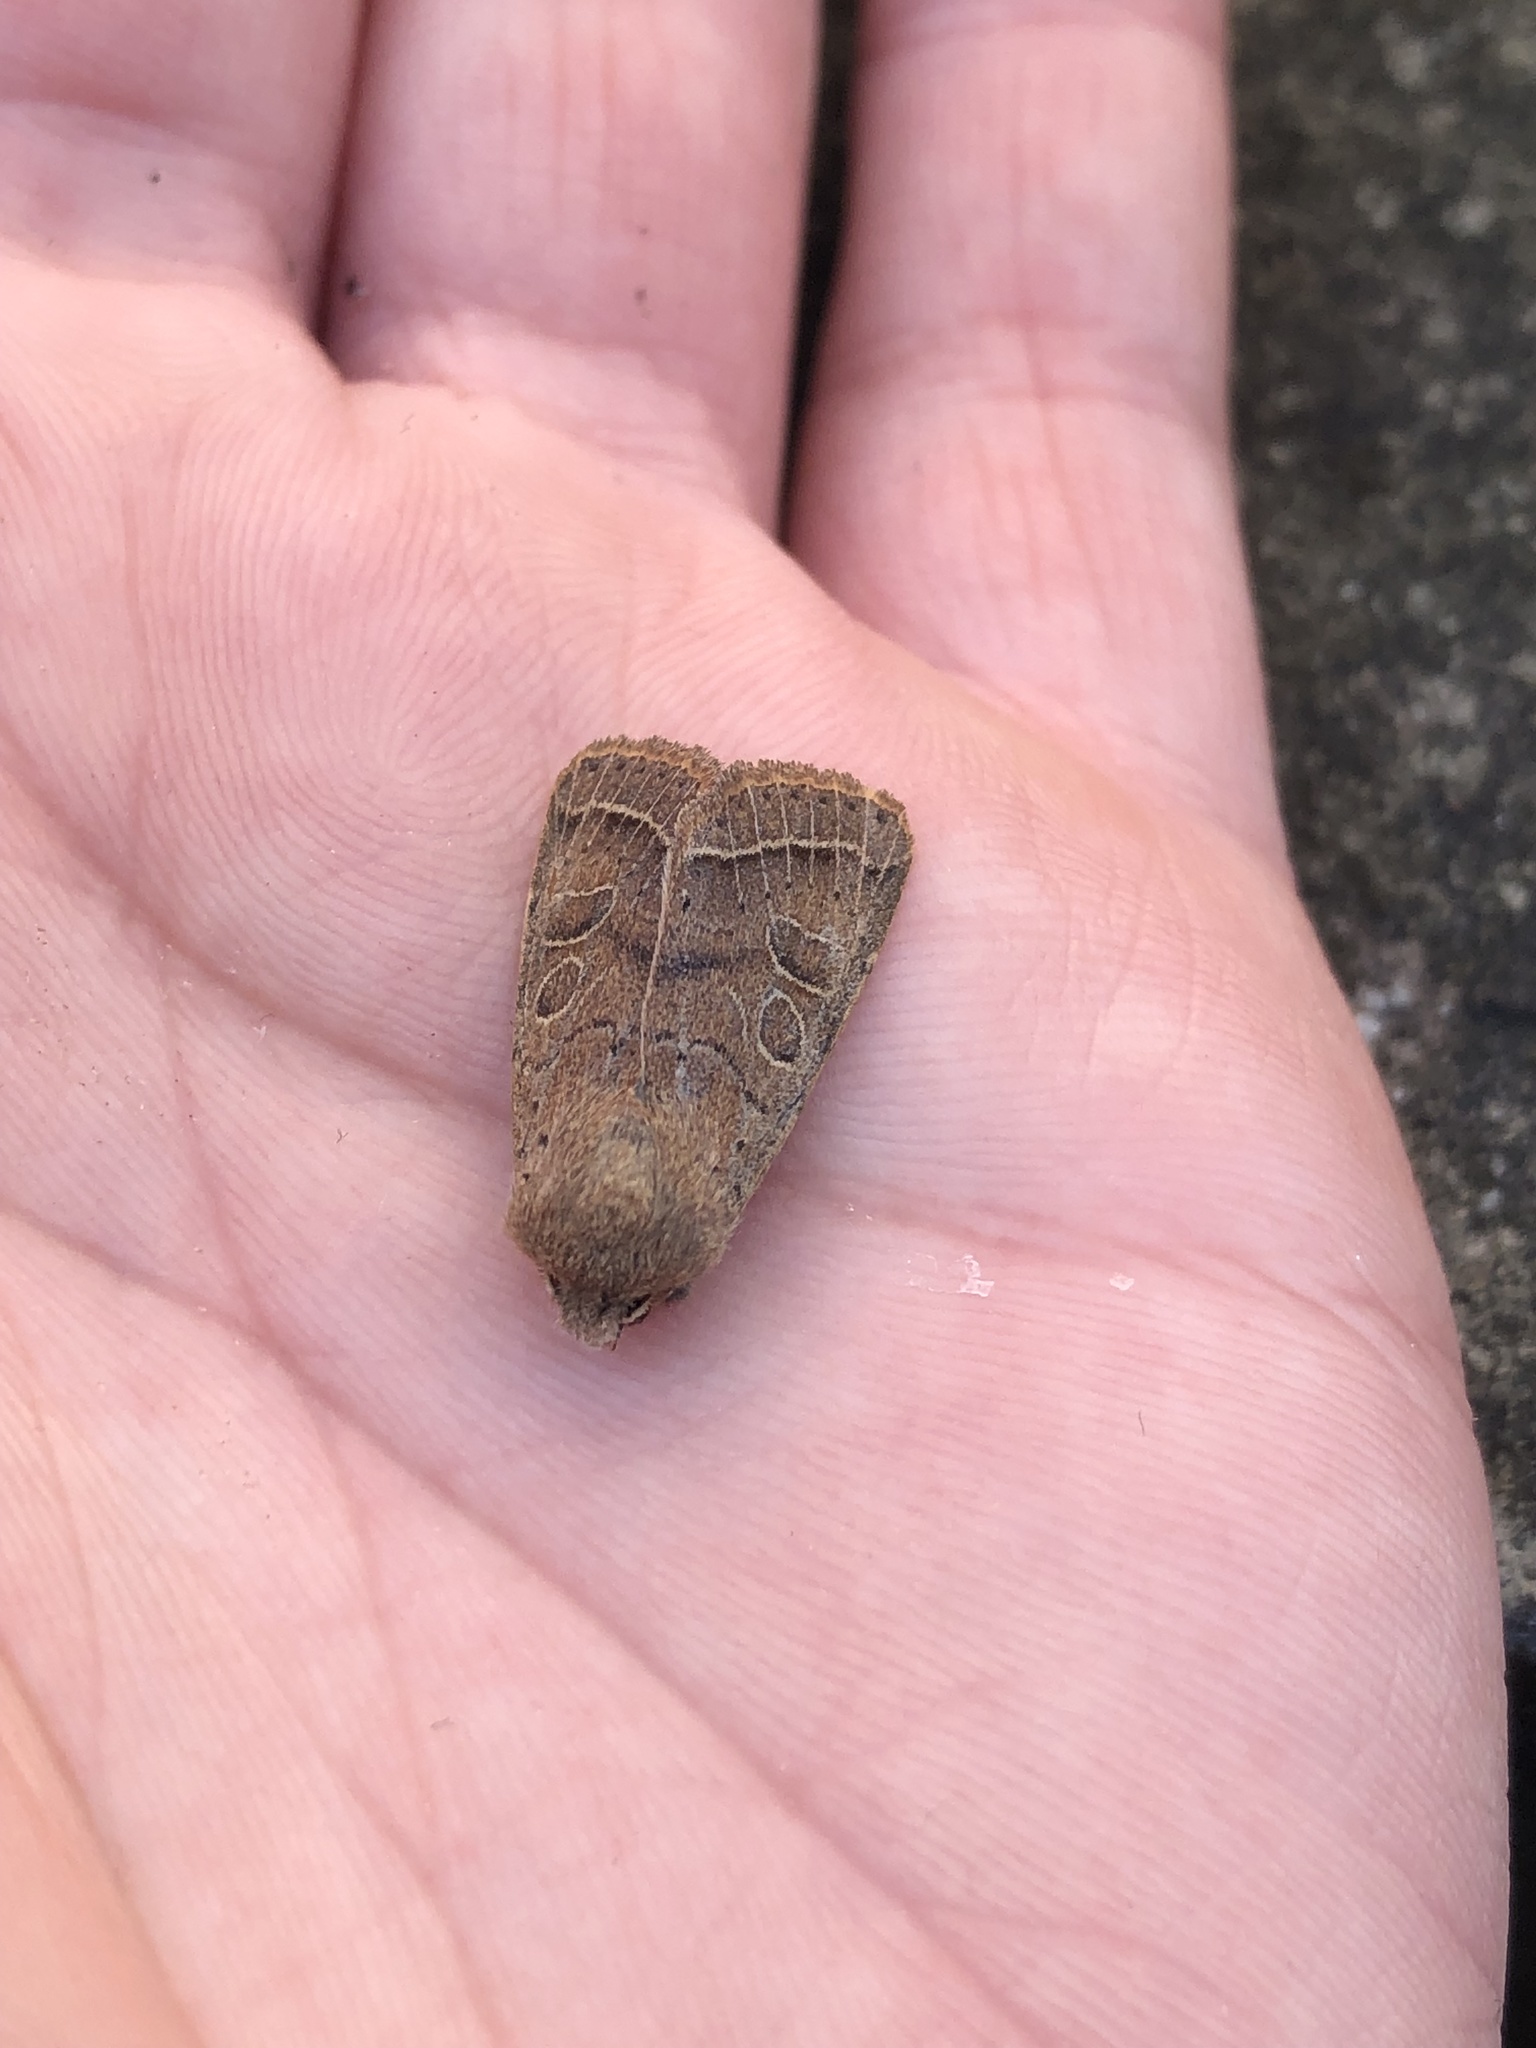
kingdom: Animalia
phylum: Arthropoda
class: Insecta
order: Lepidoptera
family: Noctuidae
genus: Orthosia
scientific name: Orthosia cerasi
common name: Common quaker
